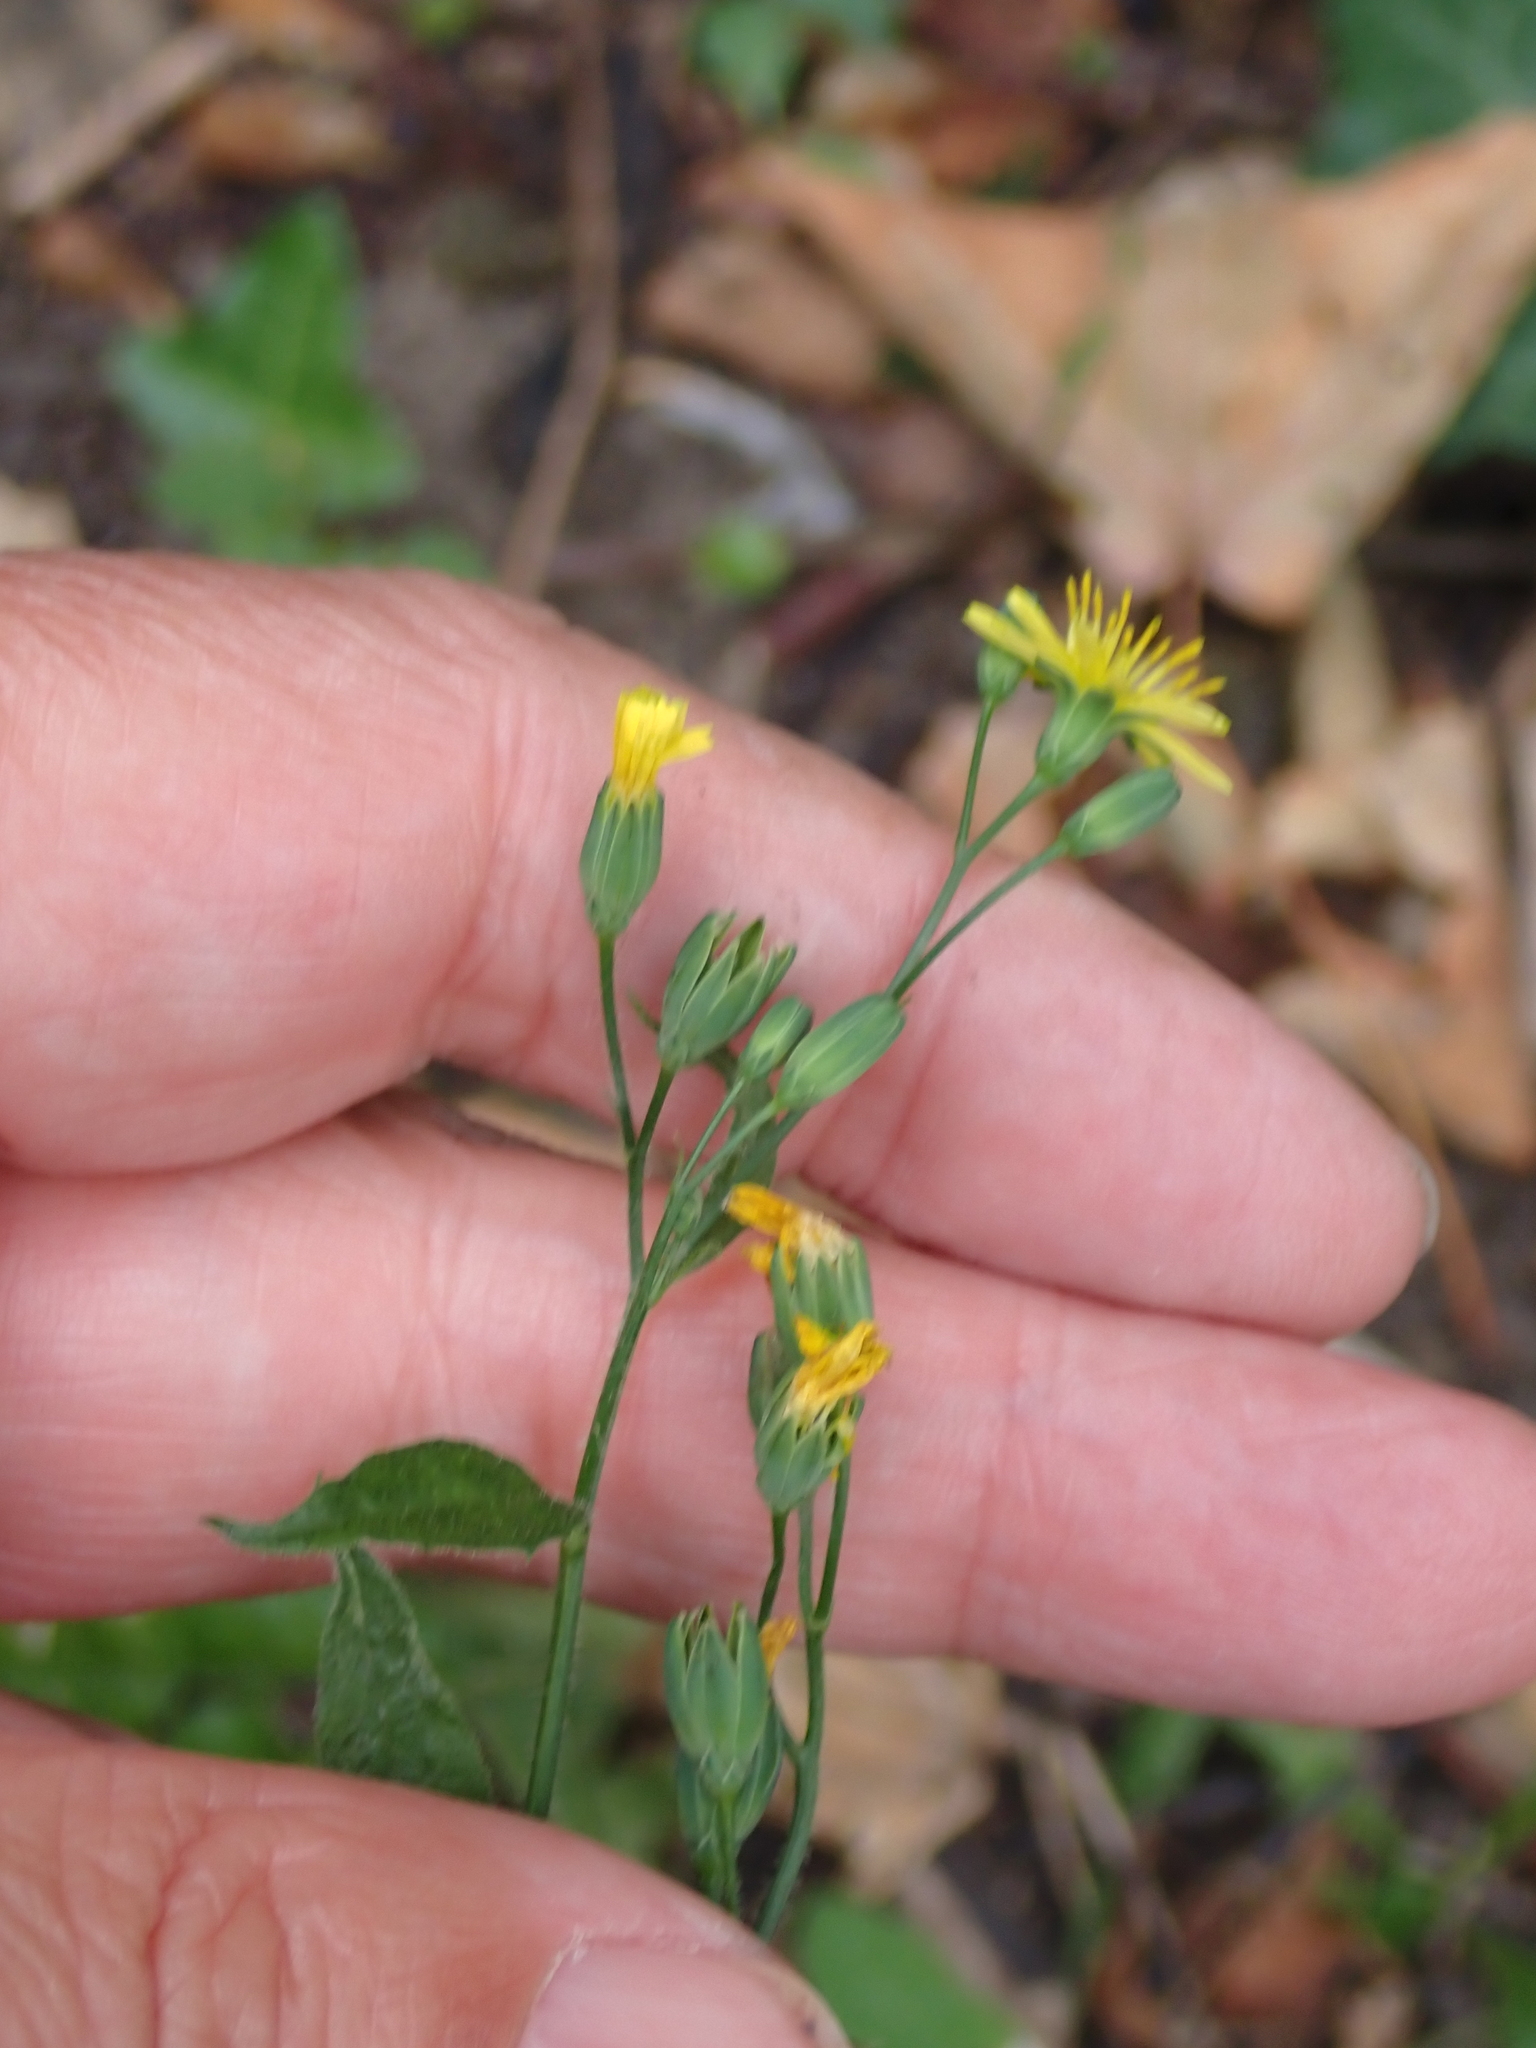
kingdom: Plantae
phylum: Tracheophyta
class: Magnoliopsida
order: Asterales
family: Asteraceae
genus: Lapsana
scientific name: Lapsana communis
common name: Nipplewort
